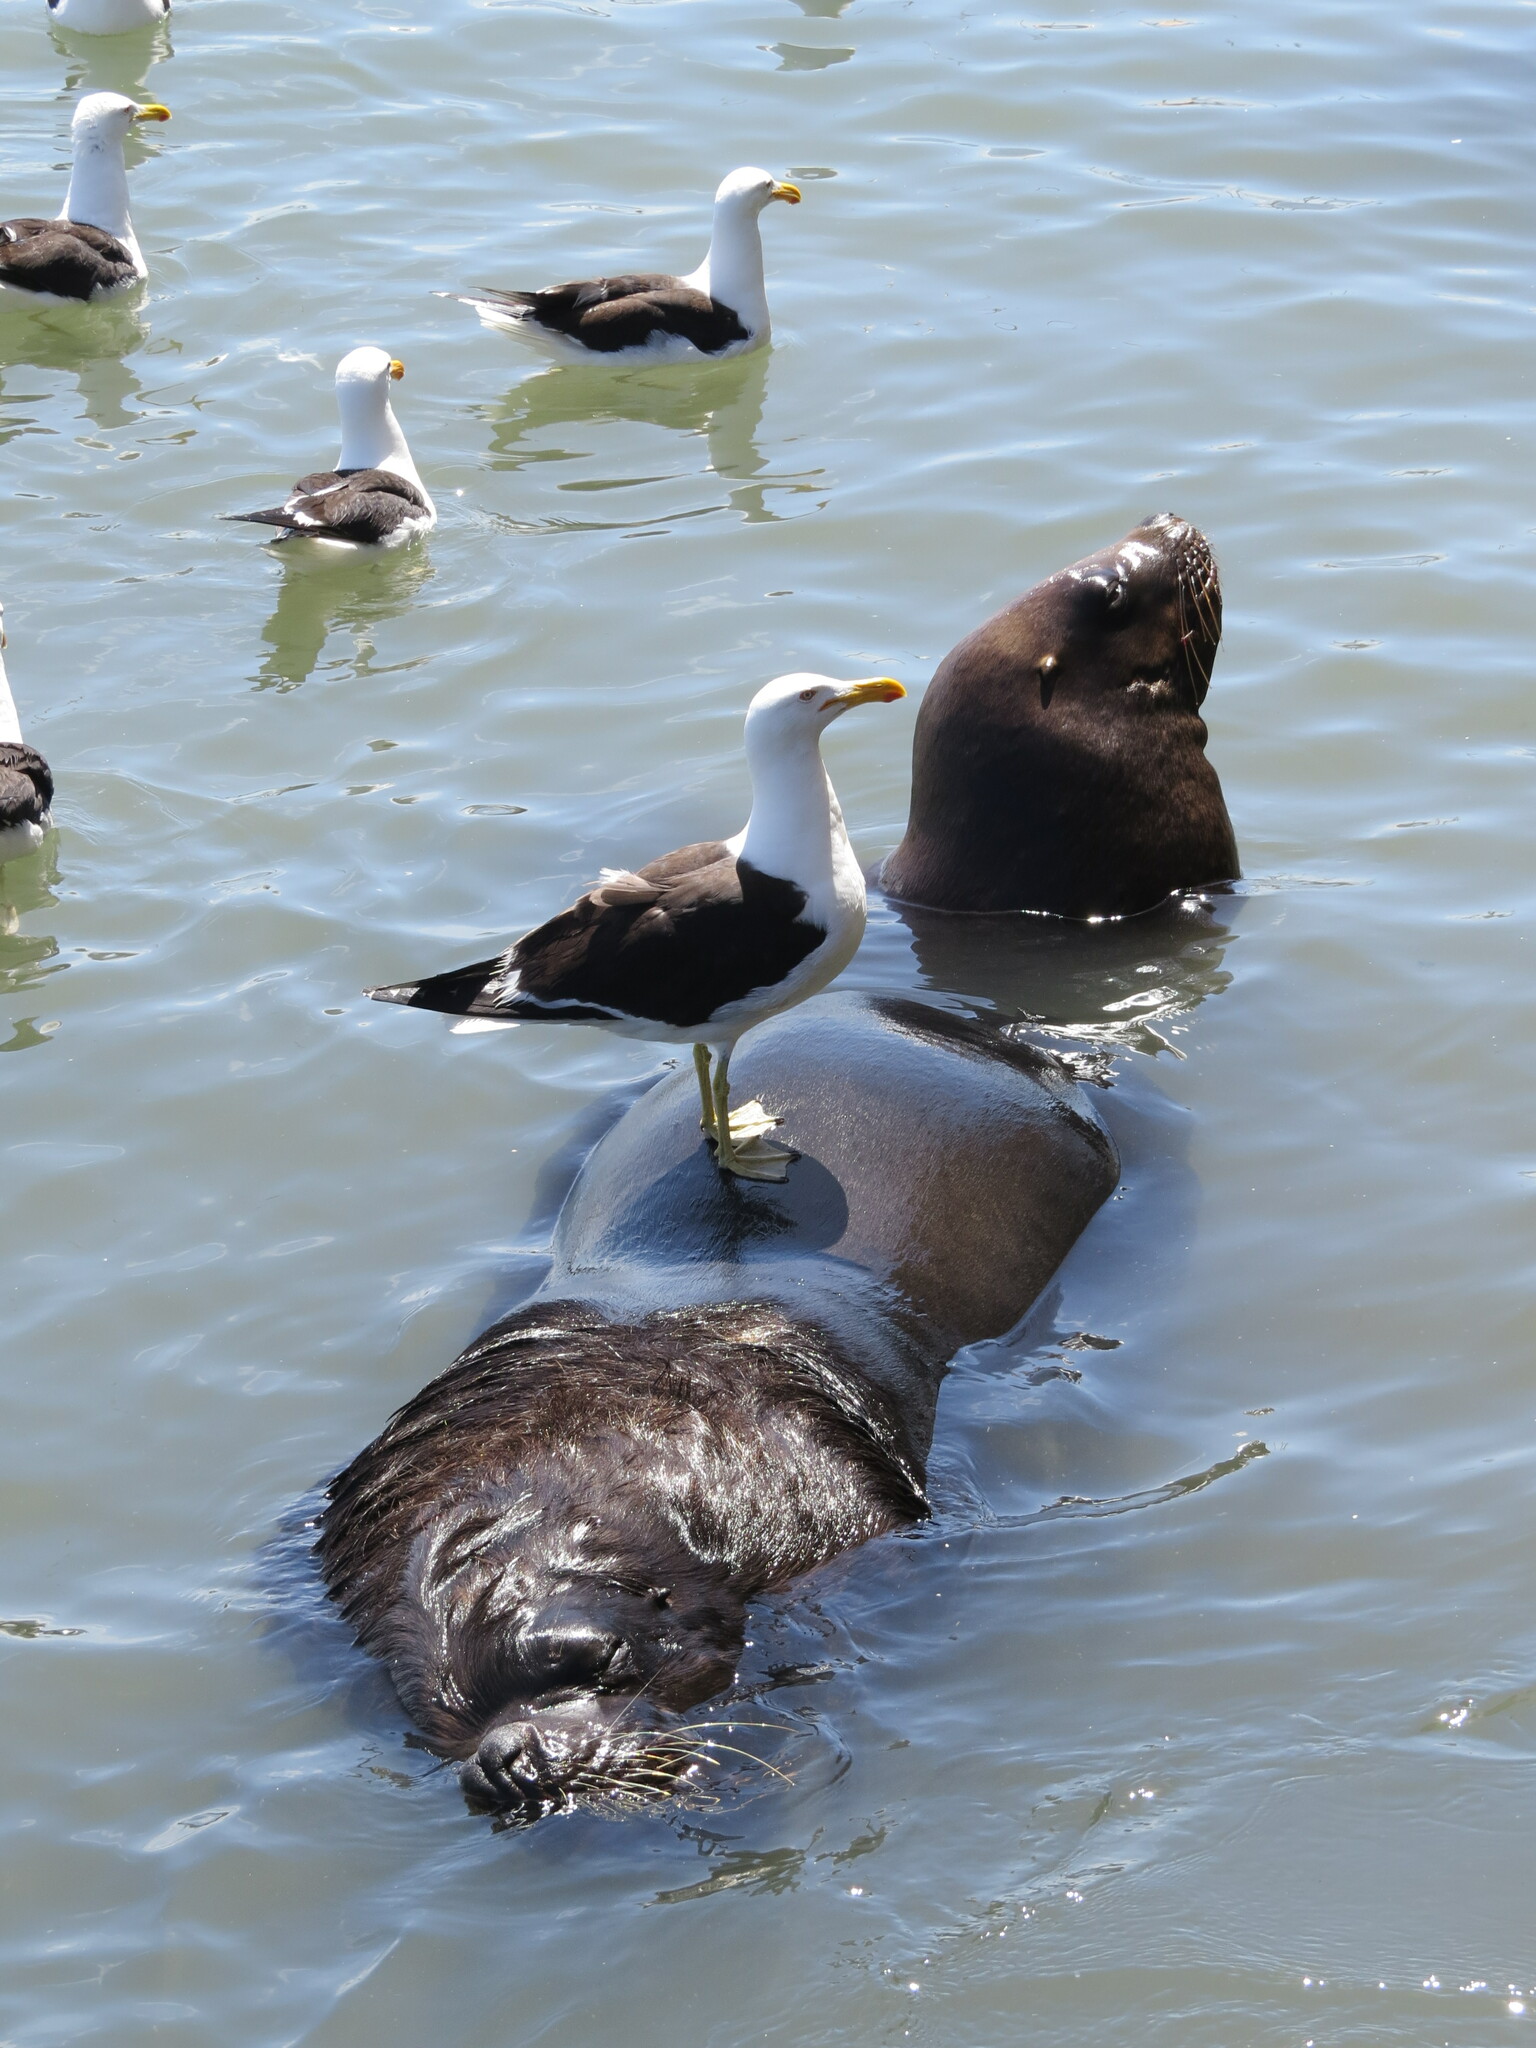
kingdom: Animalia
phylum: Chordata
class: Mammalia
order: Carnivora
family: Otariidae
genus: Otaria
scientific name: Otaria byronia
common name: South american sea lion
